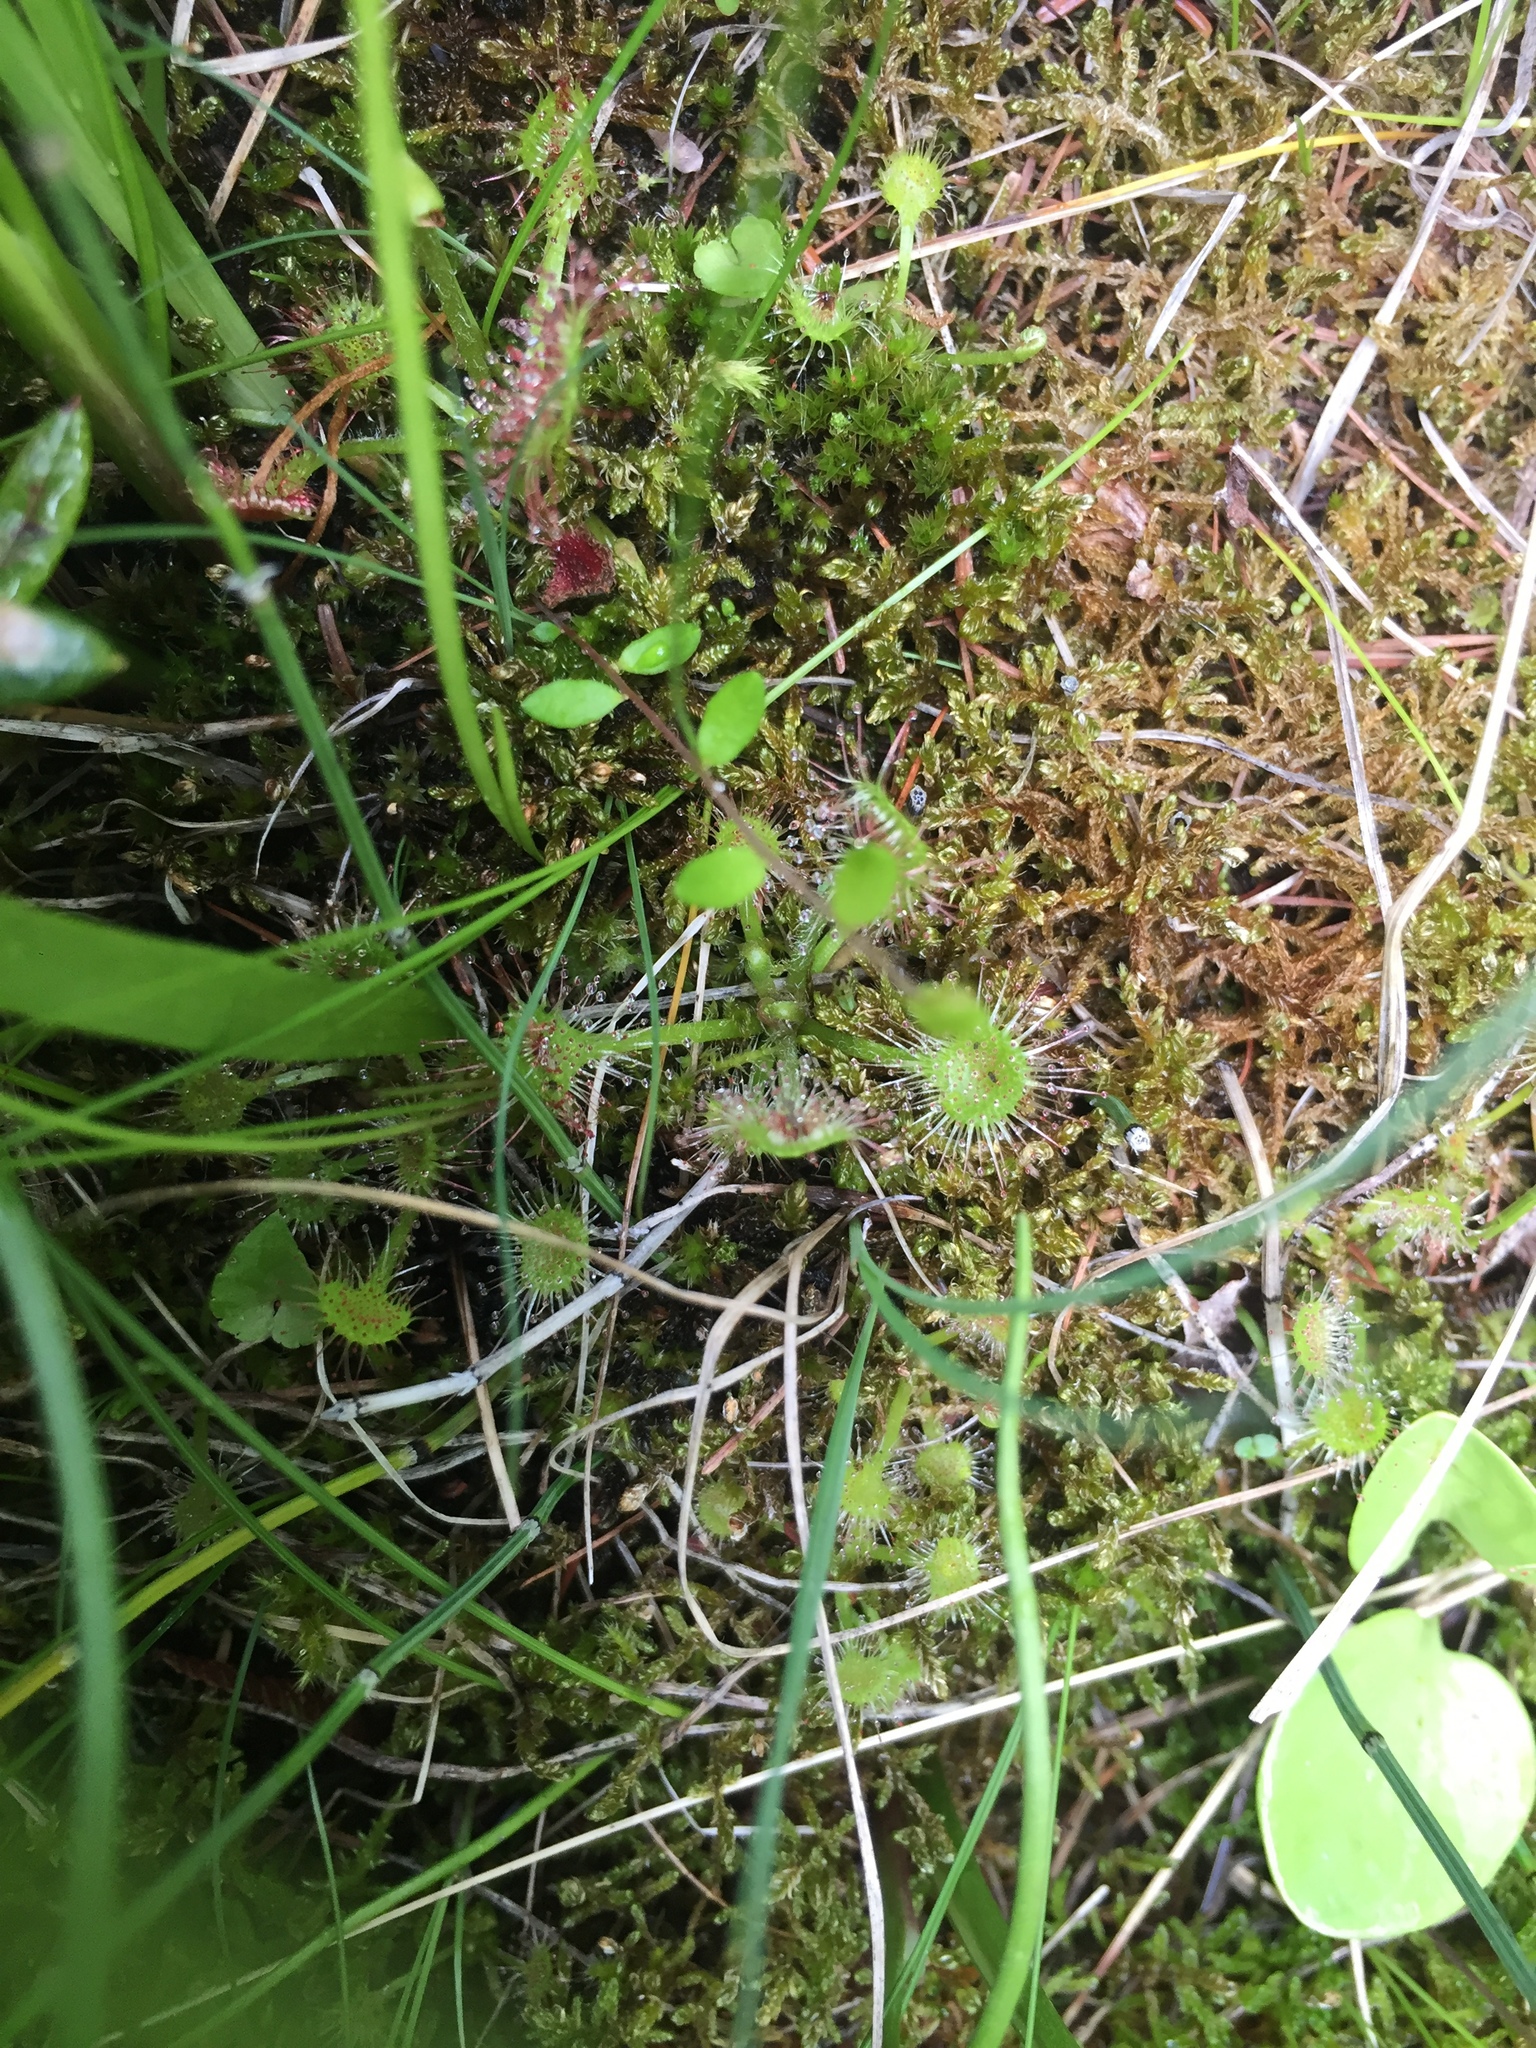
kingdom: Plantae
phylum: Tracheophyta
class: Magnoliopsida
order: Caryophyllales
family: Droseraceae
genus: Drosera
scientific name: Drosera rotundifolia
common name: Round-leaved sundew
